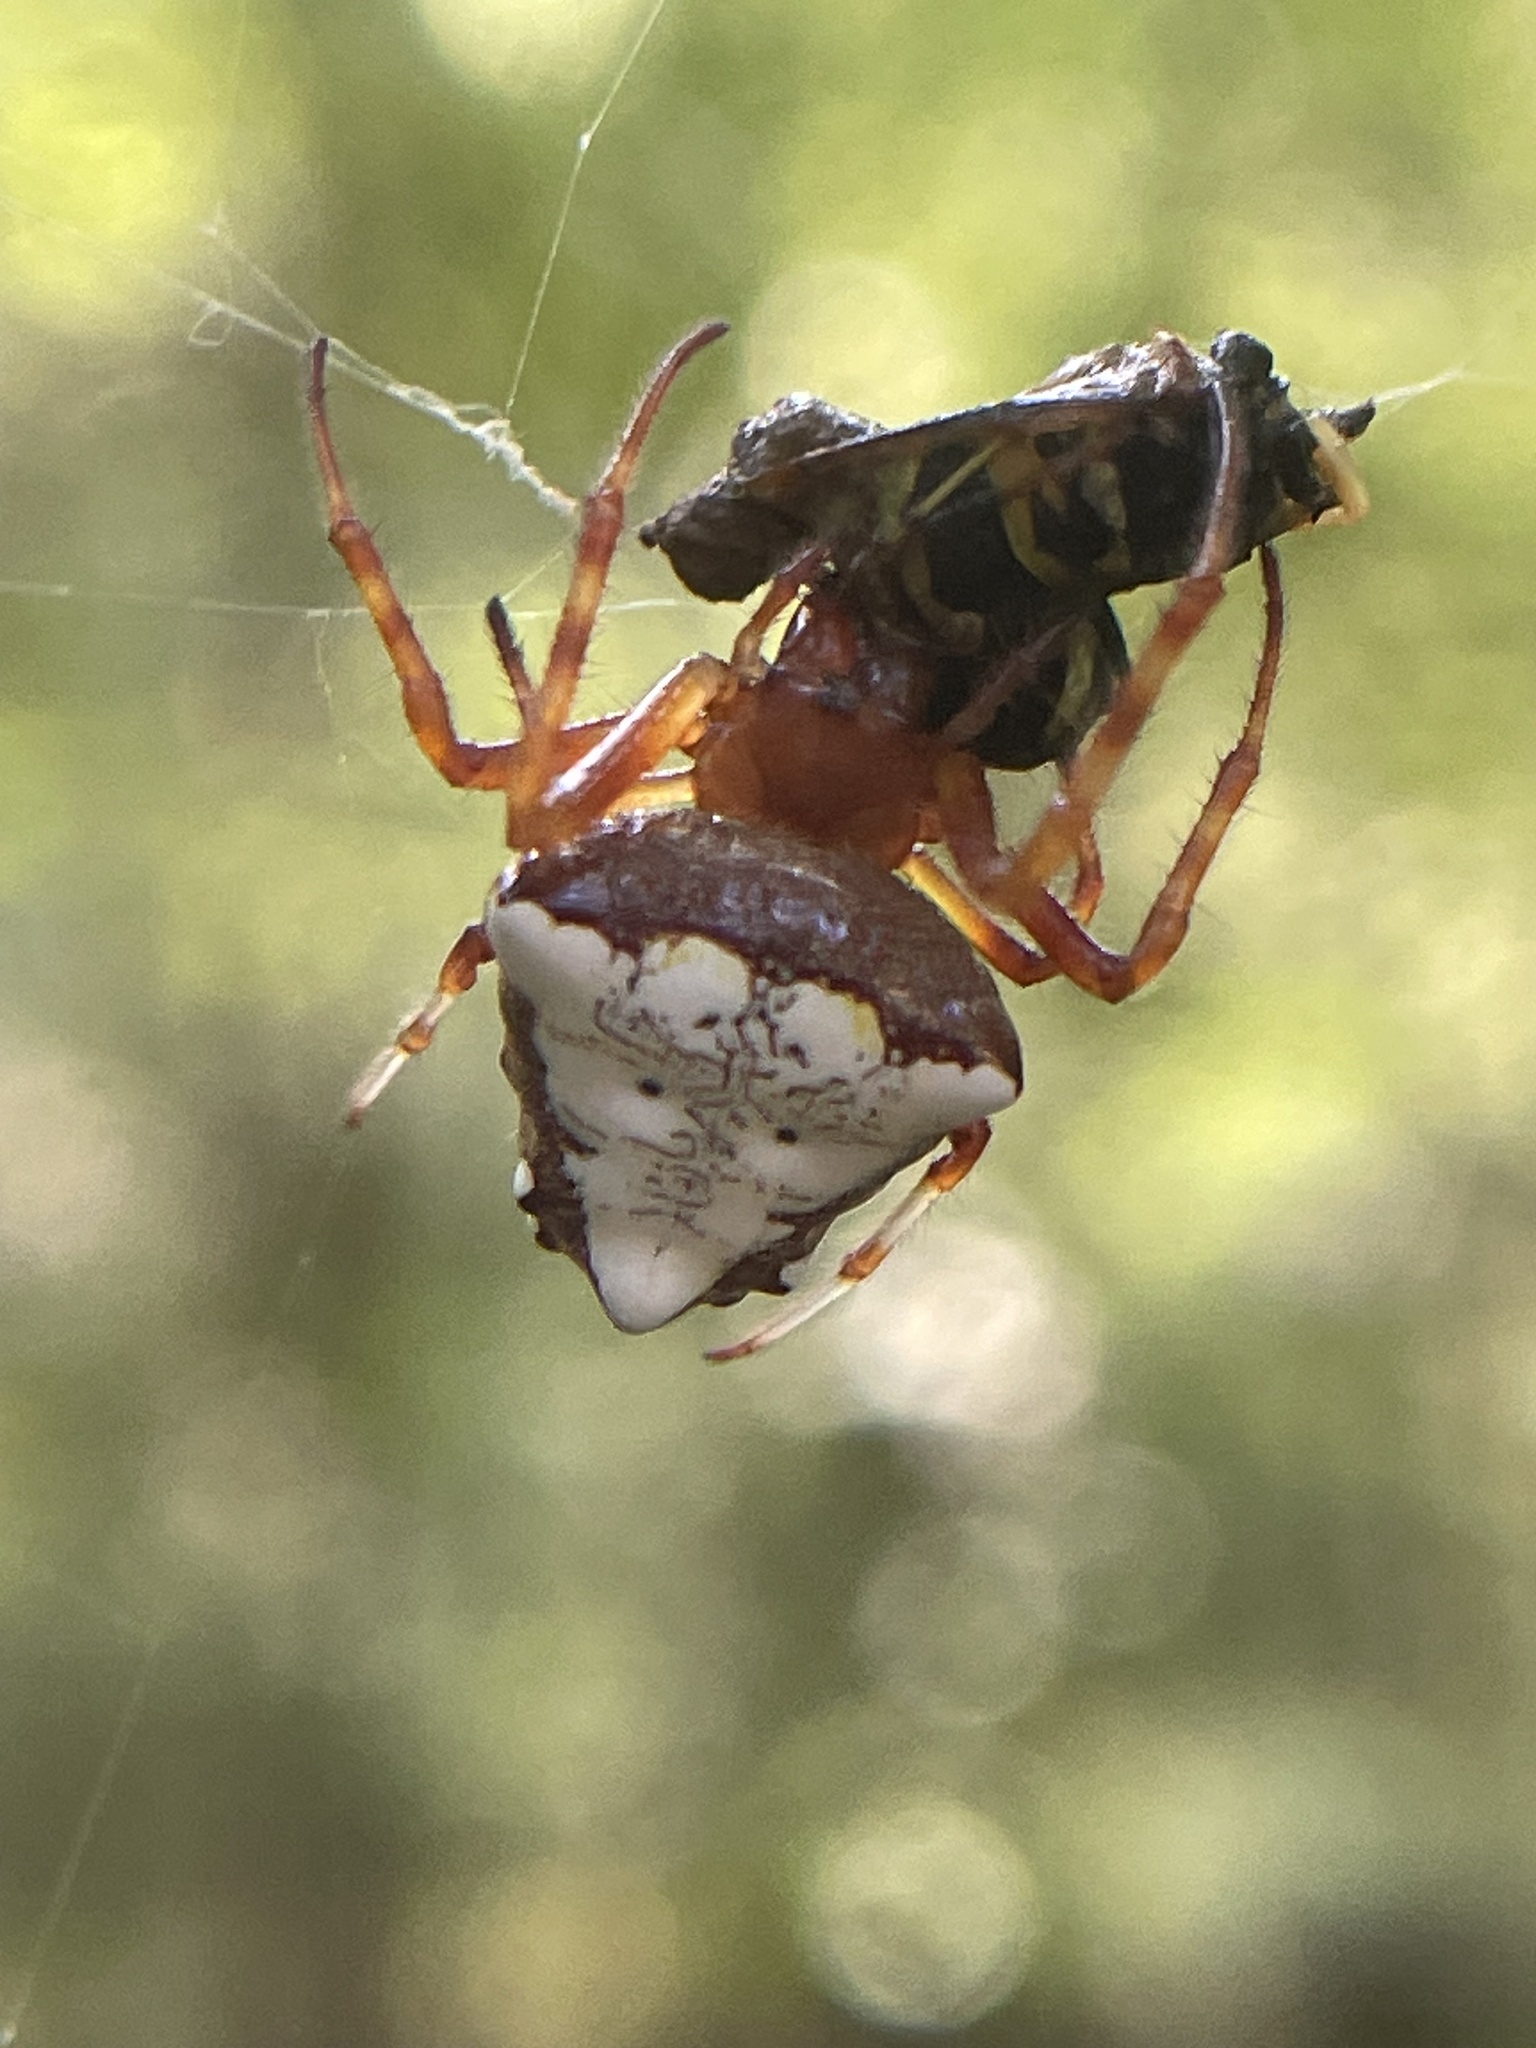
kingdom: Animalia
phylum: Arthropoda
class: Arachnida
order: Araneae
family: Araneidae
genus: Verrucosa
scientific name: Verrucosa arenata
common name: Orb weavers
